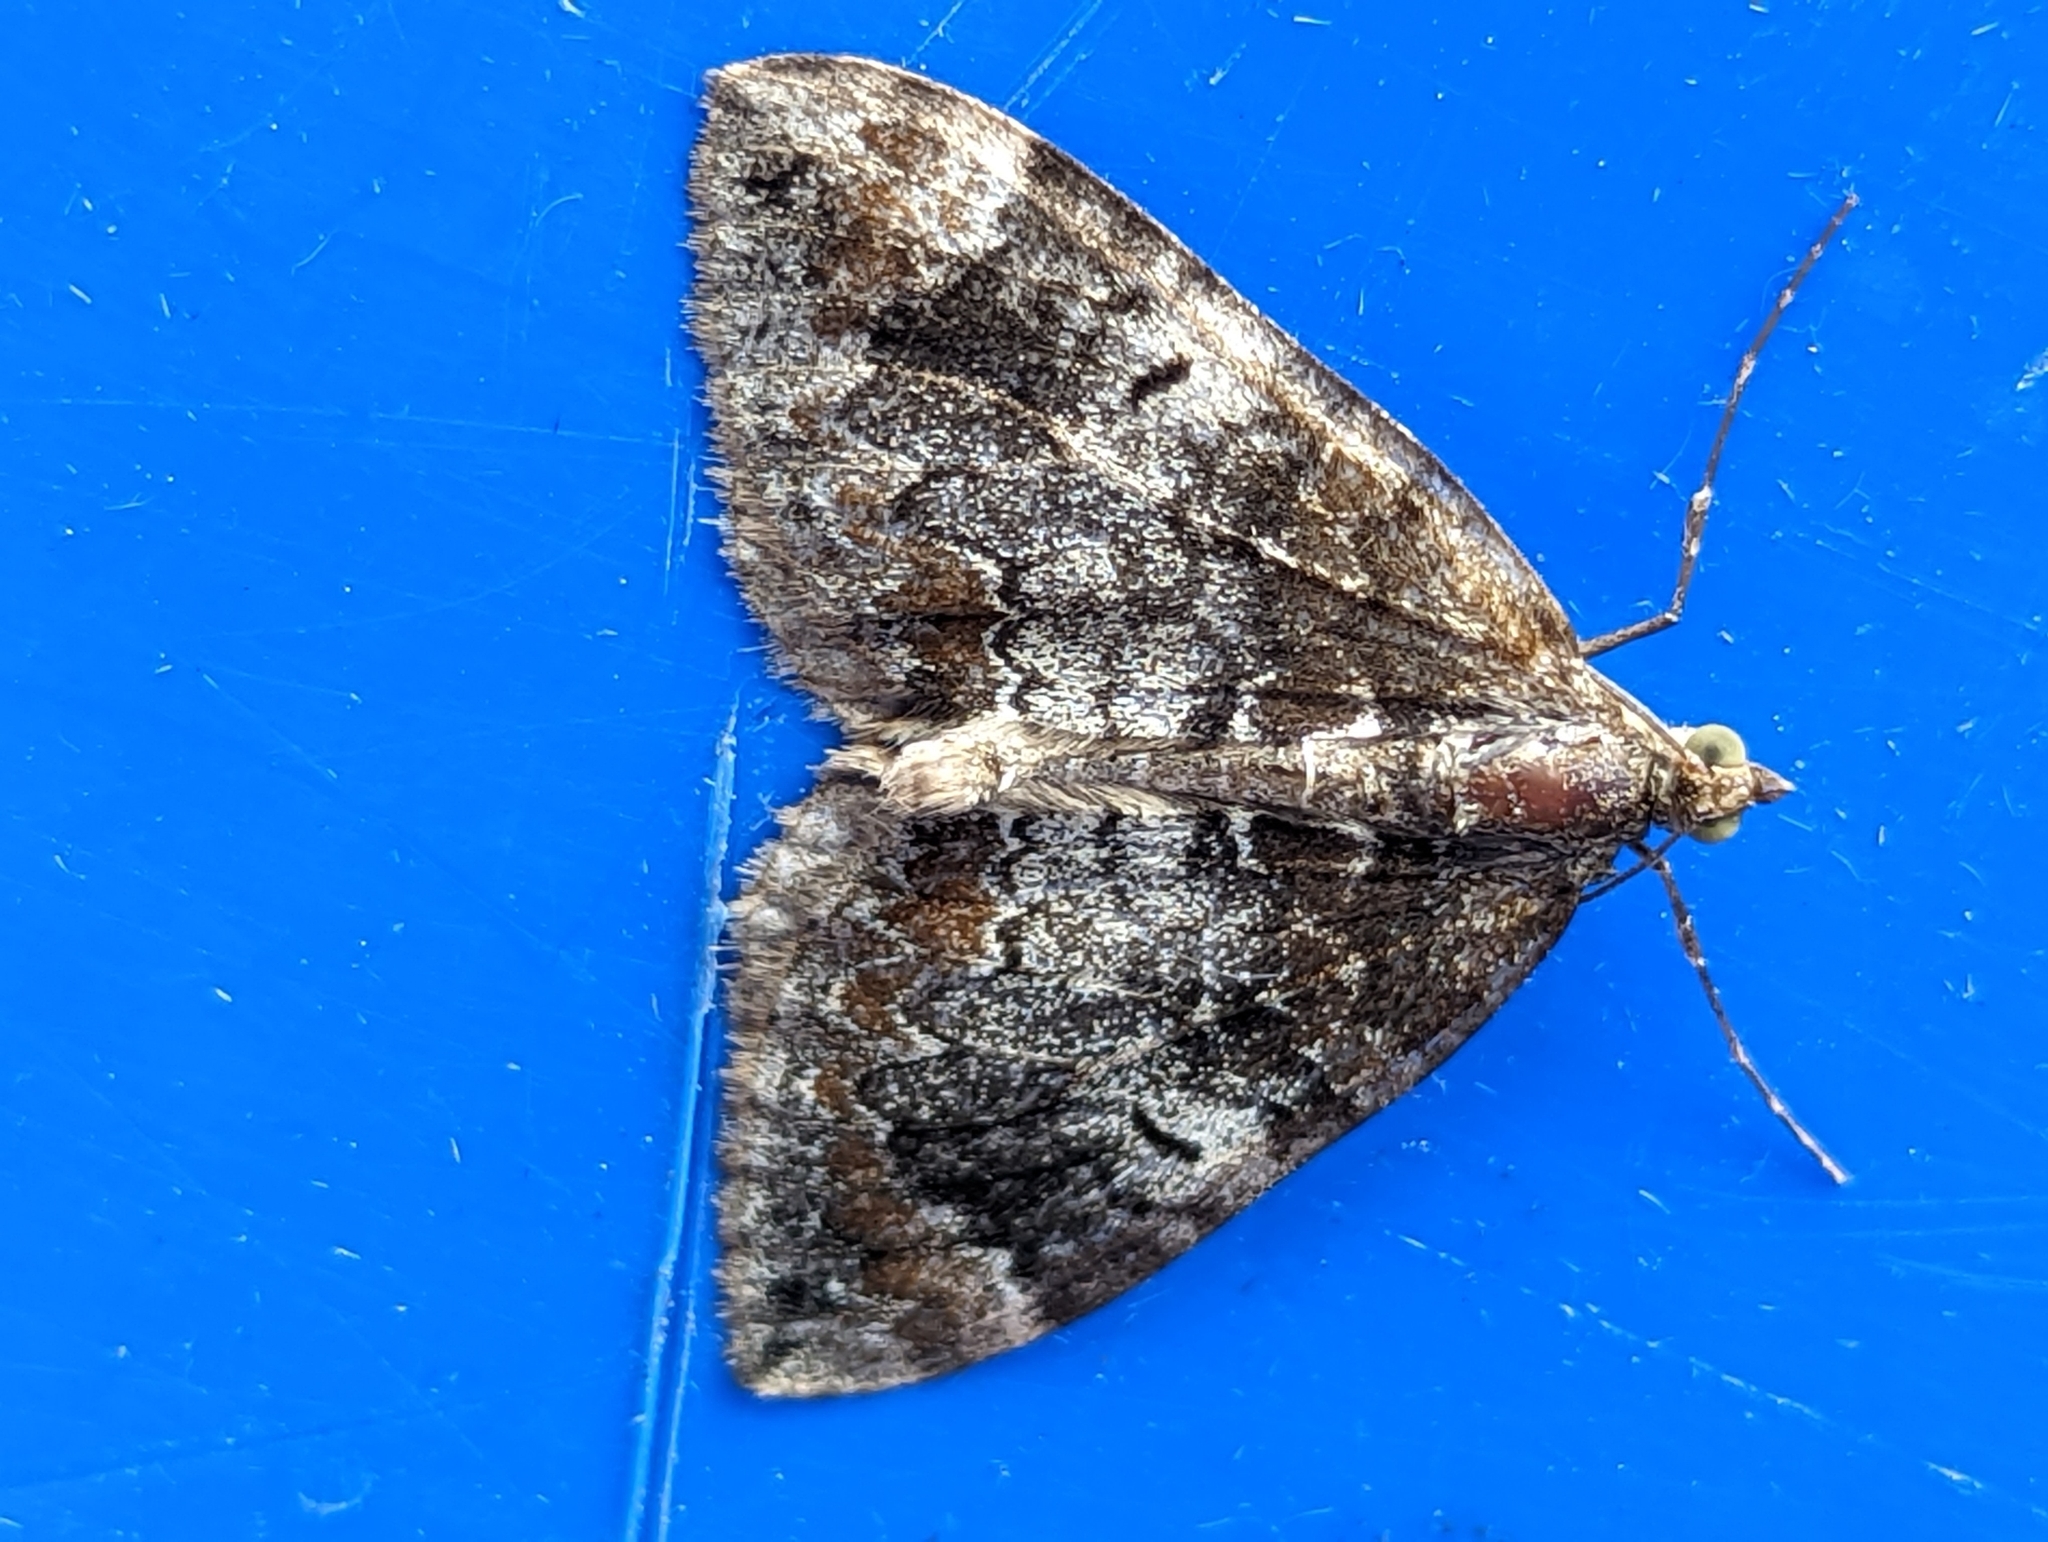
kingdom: Animalia
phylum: Arthropoda
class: Insecta
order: Lepidoptera
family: Geometridae
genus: Dysstroma
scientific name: Dysstroma truncata
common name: Common marbled carpet
